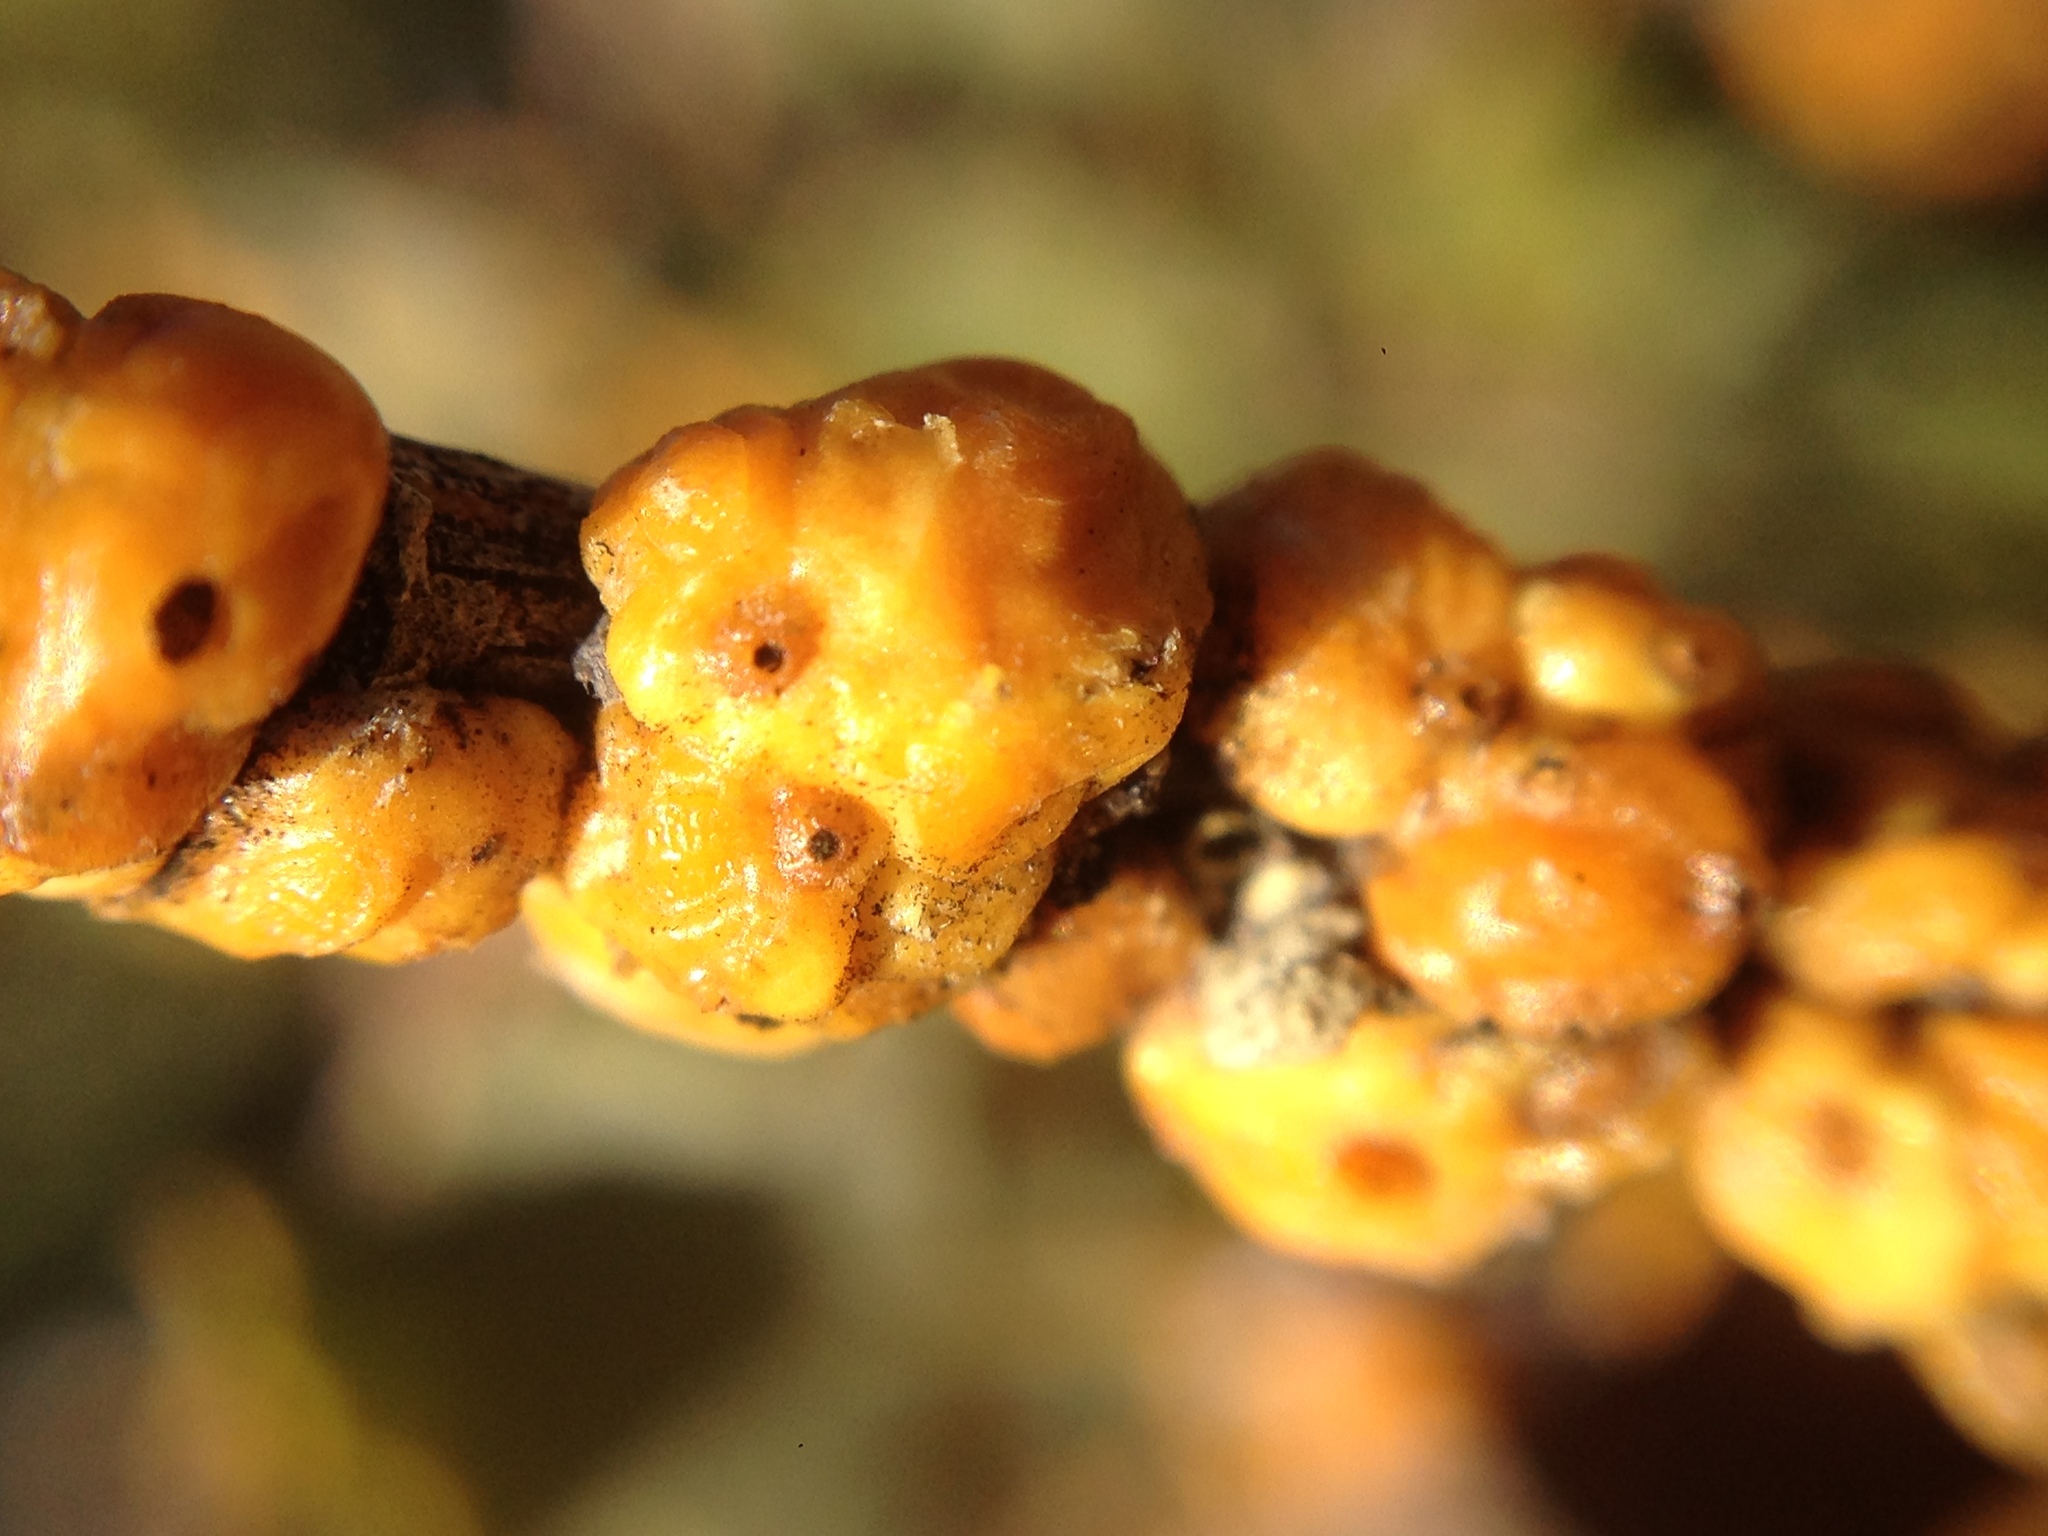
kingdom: Animalia
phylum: Arthropoda
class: Insecta
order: Hemiptera
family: Cerococcidae
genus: Cerococcus
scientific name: Cerococcus quercus
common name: Oak cerococcus
